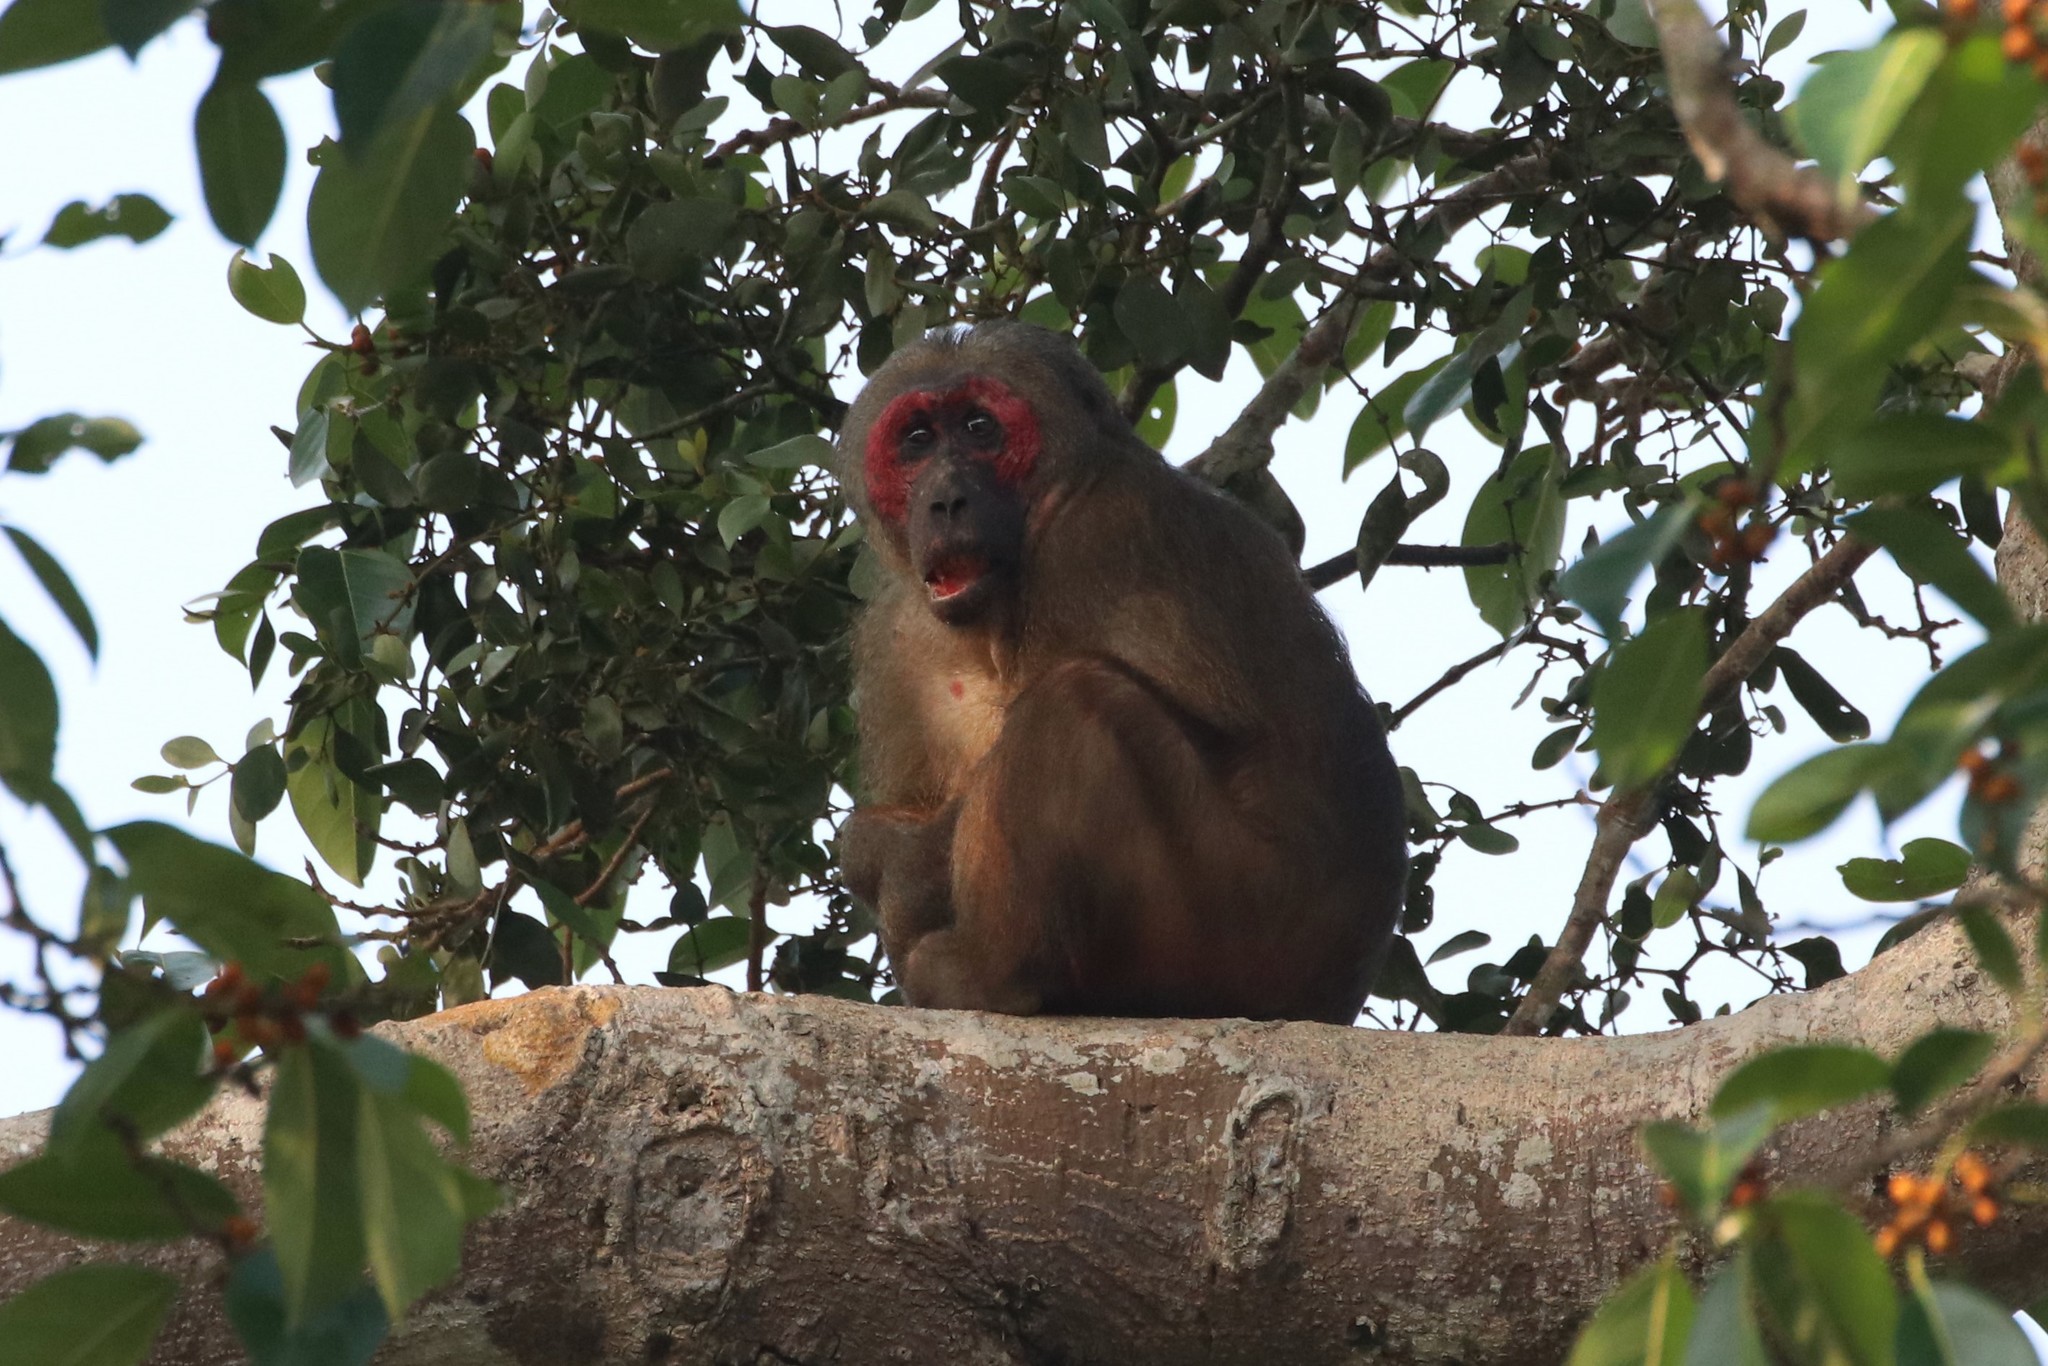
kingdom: Animalia
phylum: Chordata
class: Mammalia
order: Primates
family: Cercopithecidae
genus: Macaca
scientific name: Macaca arctoides
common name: Stump-tailed macaque
